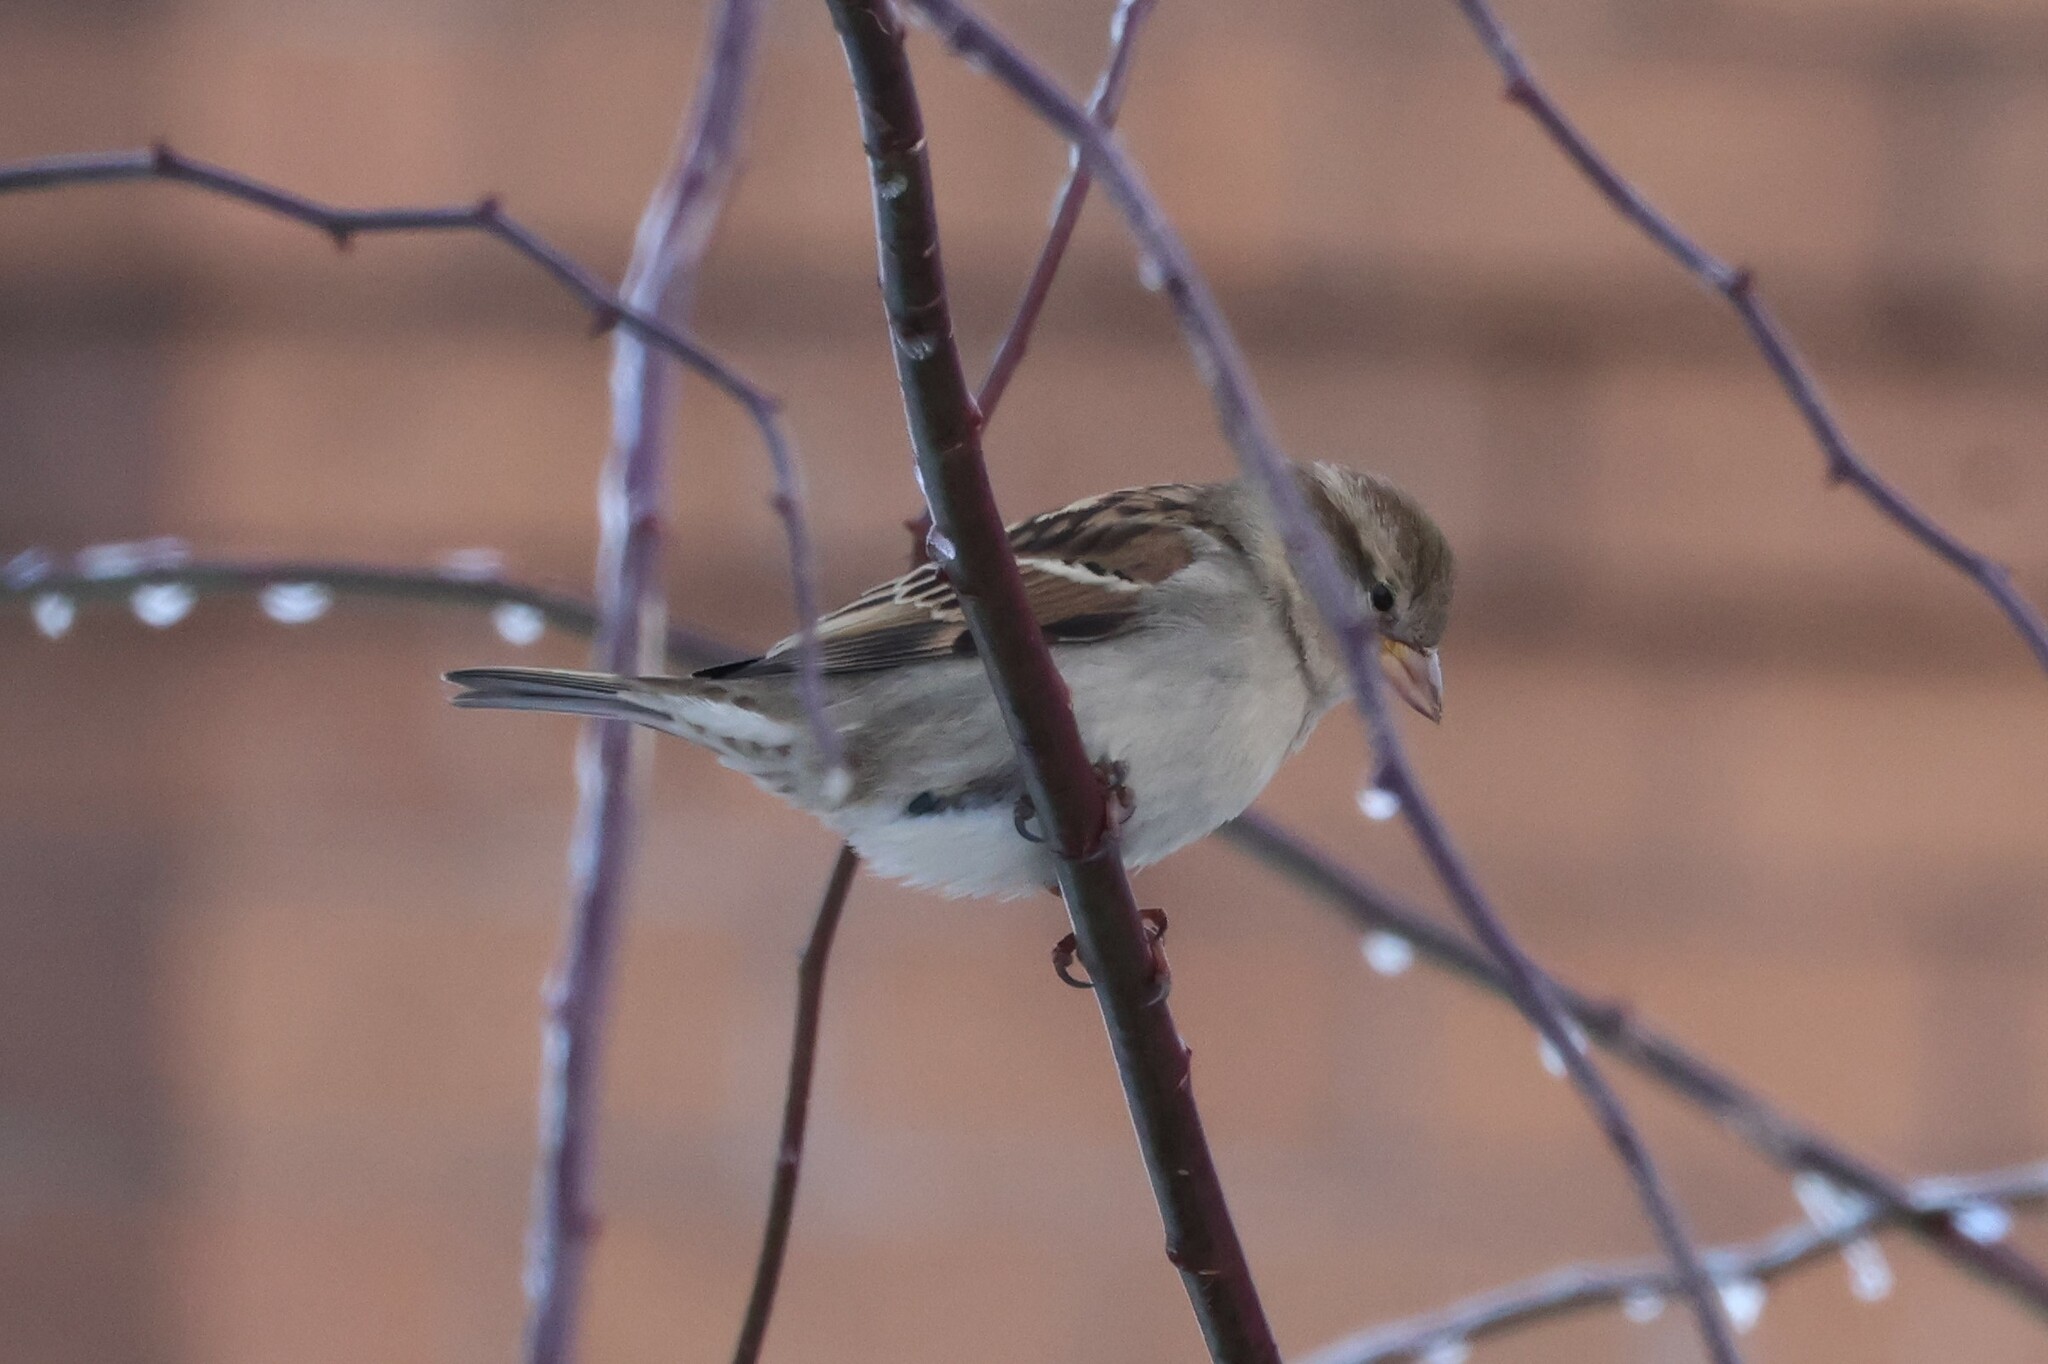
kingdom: Animalia
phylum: Chordata
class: Aves
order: Passeriformes
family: Passeridae
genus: Passer
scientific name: Passer domesticus
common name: House sparrow
